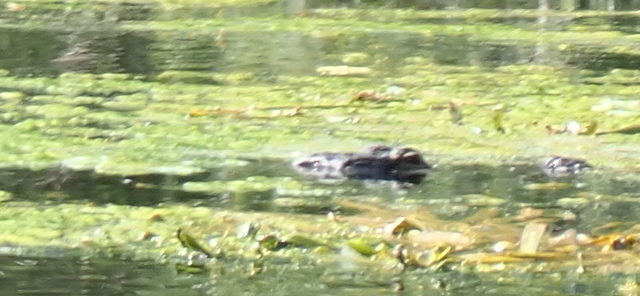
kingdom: Animalia
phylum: Chordata
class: Crocodylia
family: Alligatoridae
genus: Alligator
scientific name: Alligator mississippiensis
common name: American alligator
